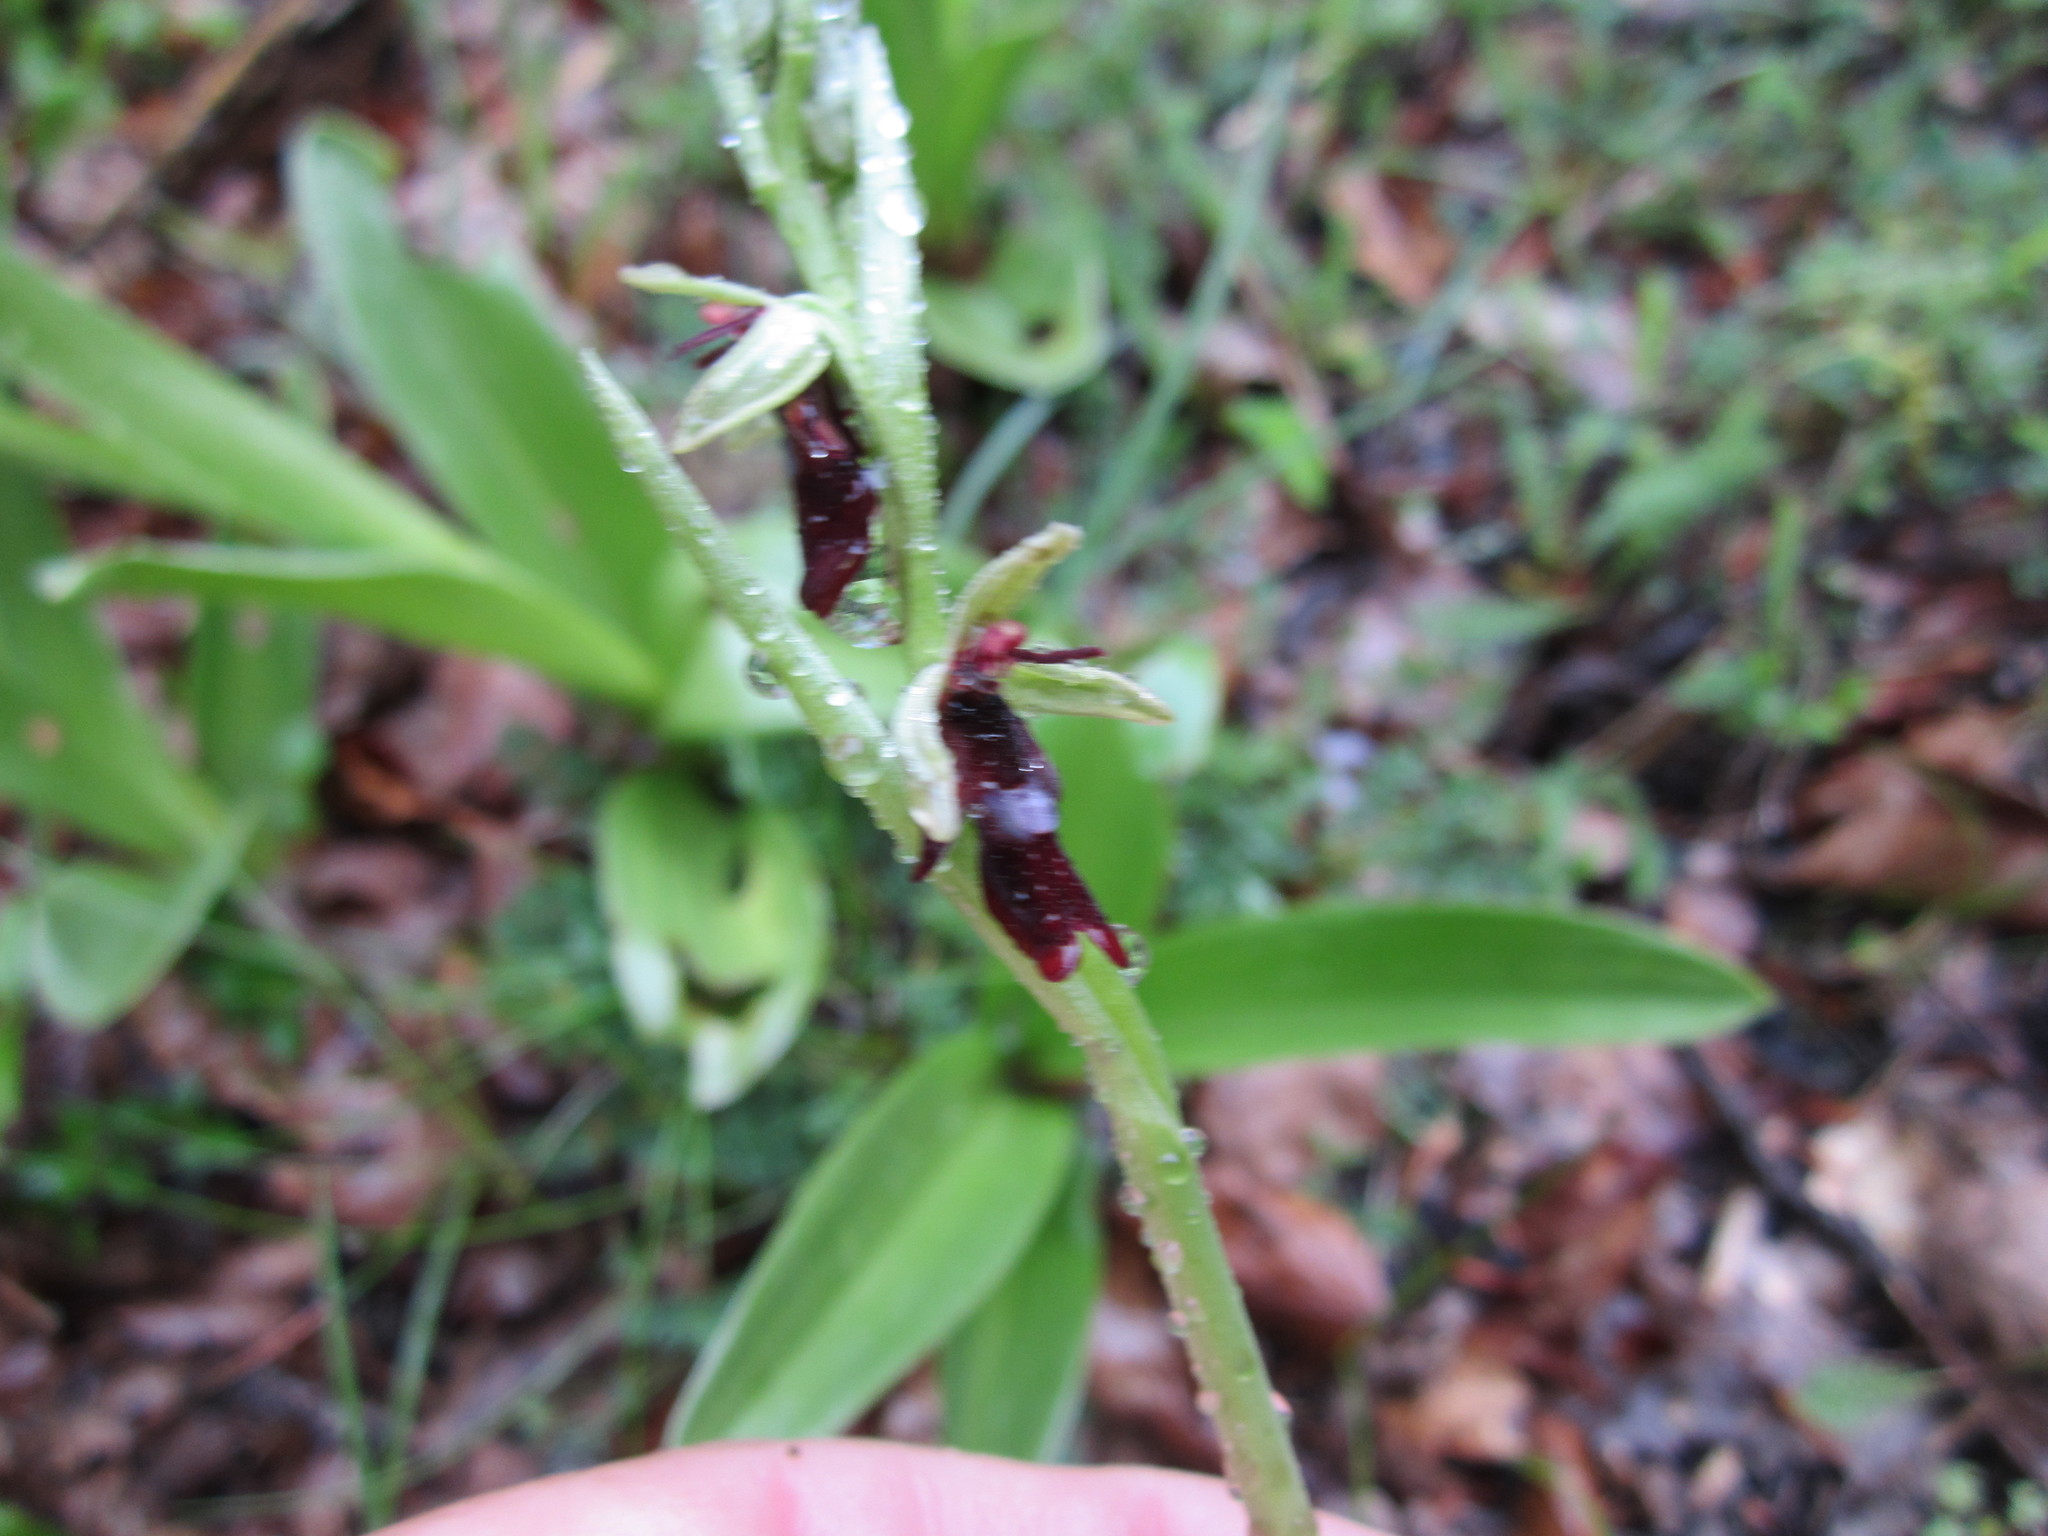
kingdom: Plantae
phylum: Tracheophyta
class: Liliopsida
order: Asparagales
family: Orchidaceae
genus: Ophrys
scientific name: Ophrys insectifera
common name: Fly orchid
